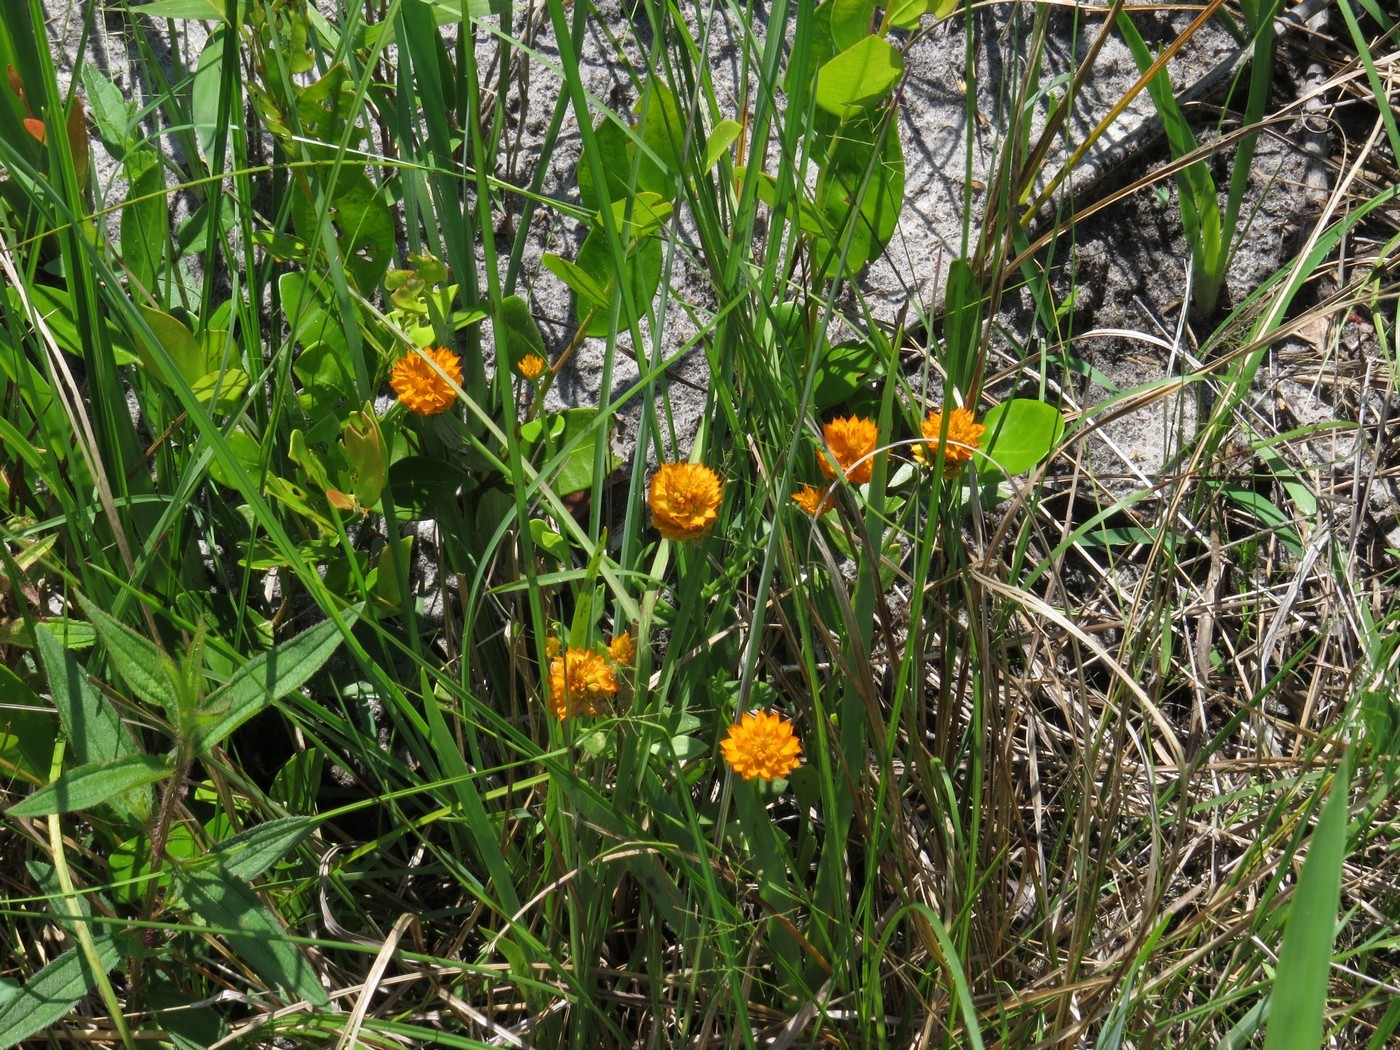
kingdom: Plantae
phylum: Tracheophyta
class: Magnoliopsida
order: Fabales
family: Polygalaceae
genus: Polygala
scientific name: Polygala lutea
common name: Orange milkwort
